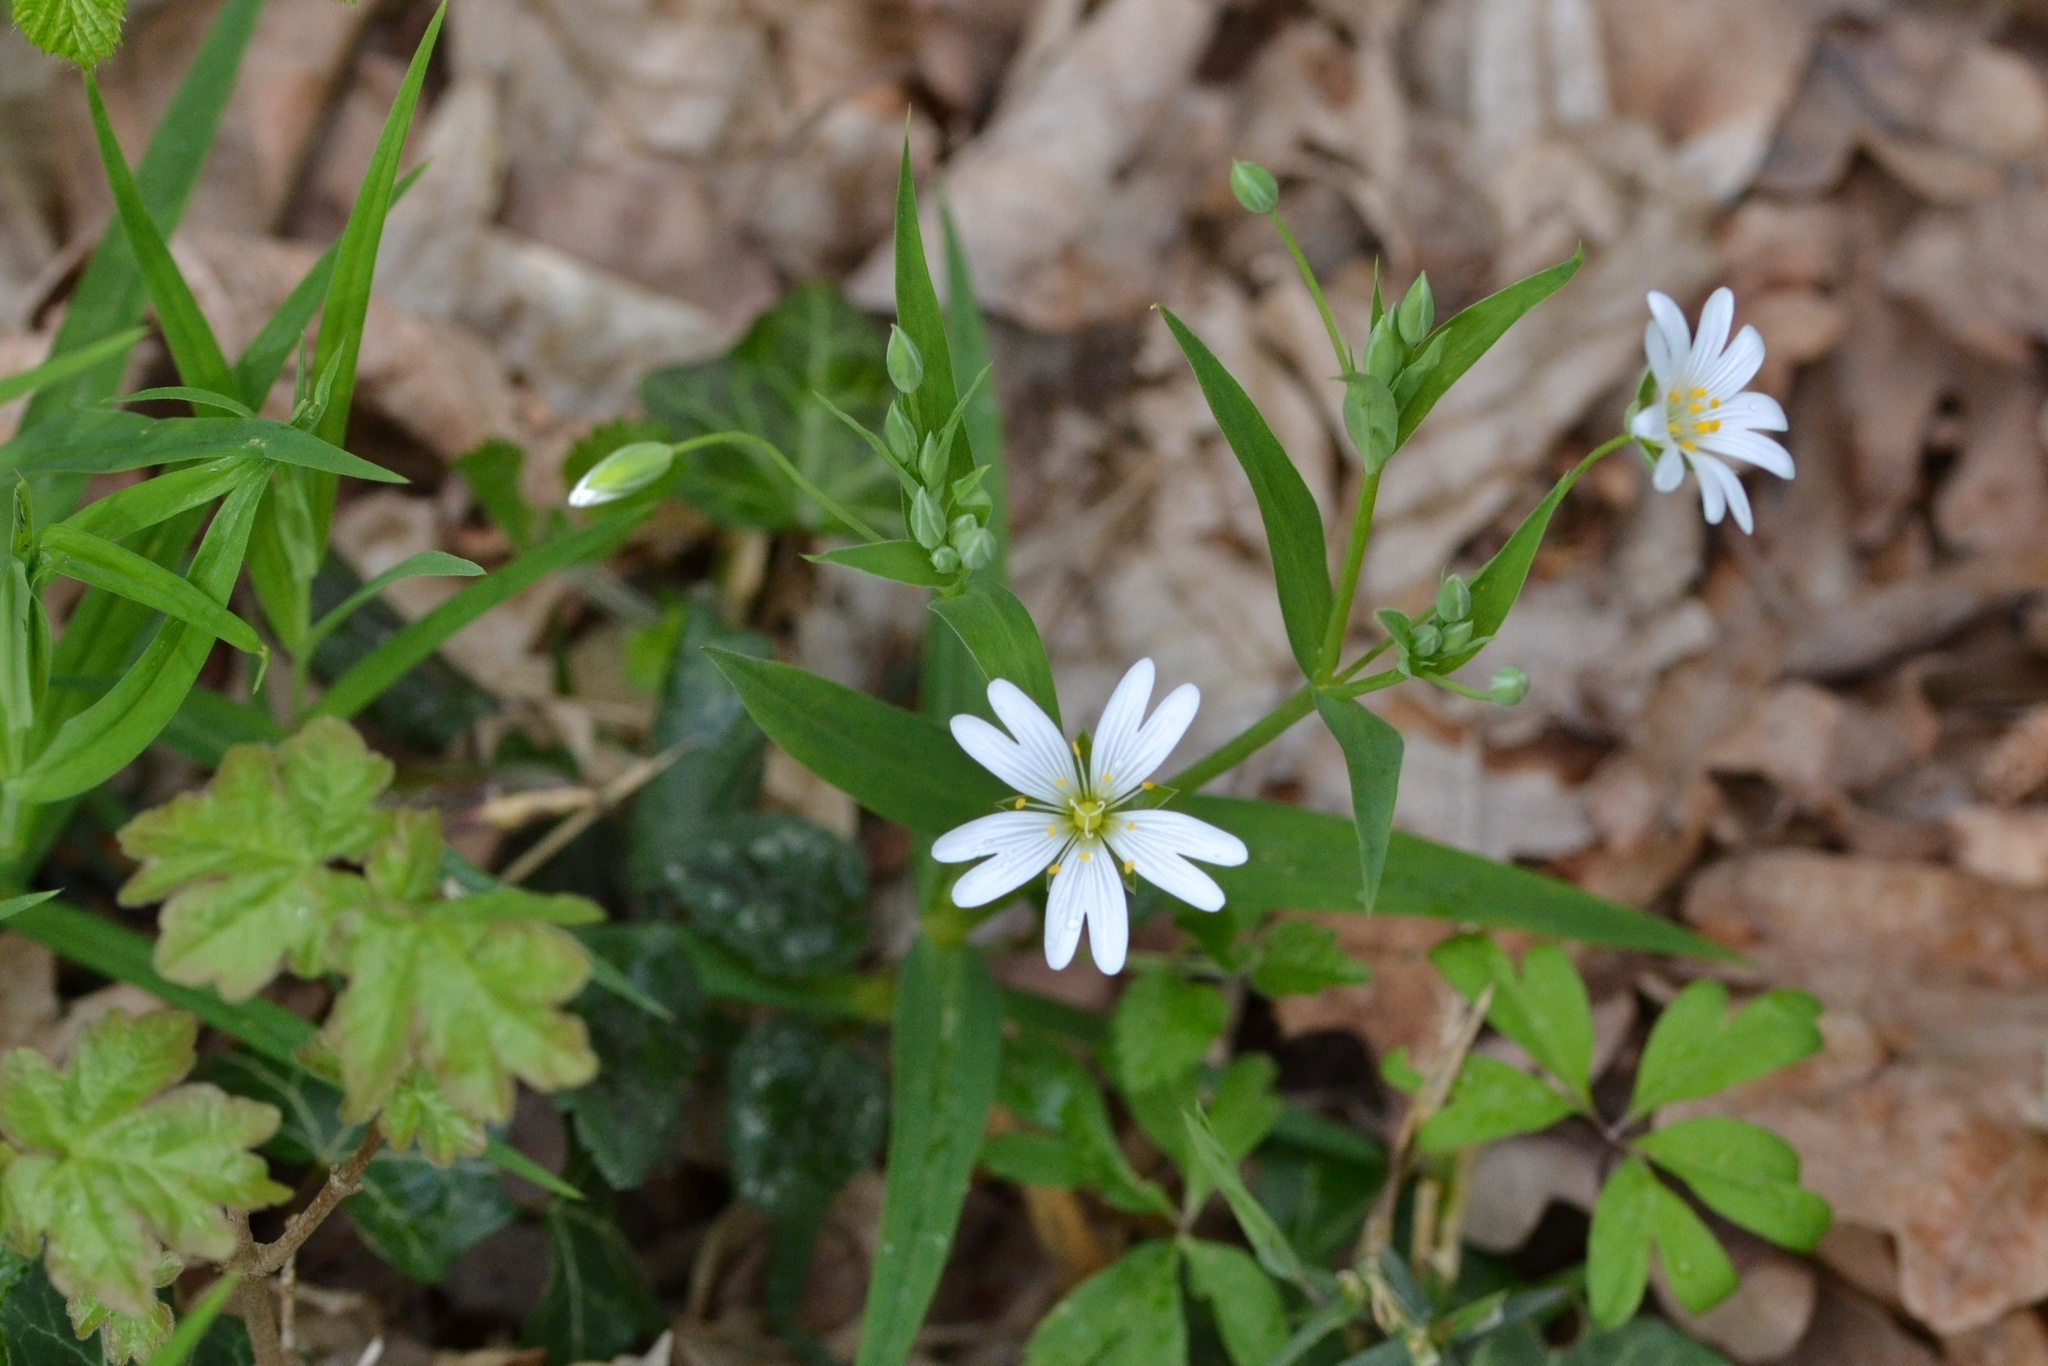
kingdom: Plantae
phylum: Tracheophyta
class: Magnoliopsida
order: Caryophyllales
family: Caryophyllaceae
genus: Rabelera
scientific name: Rabelera holostea
